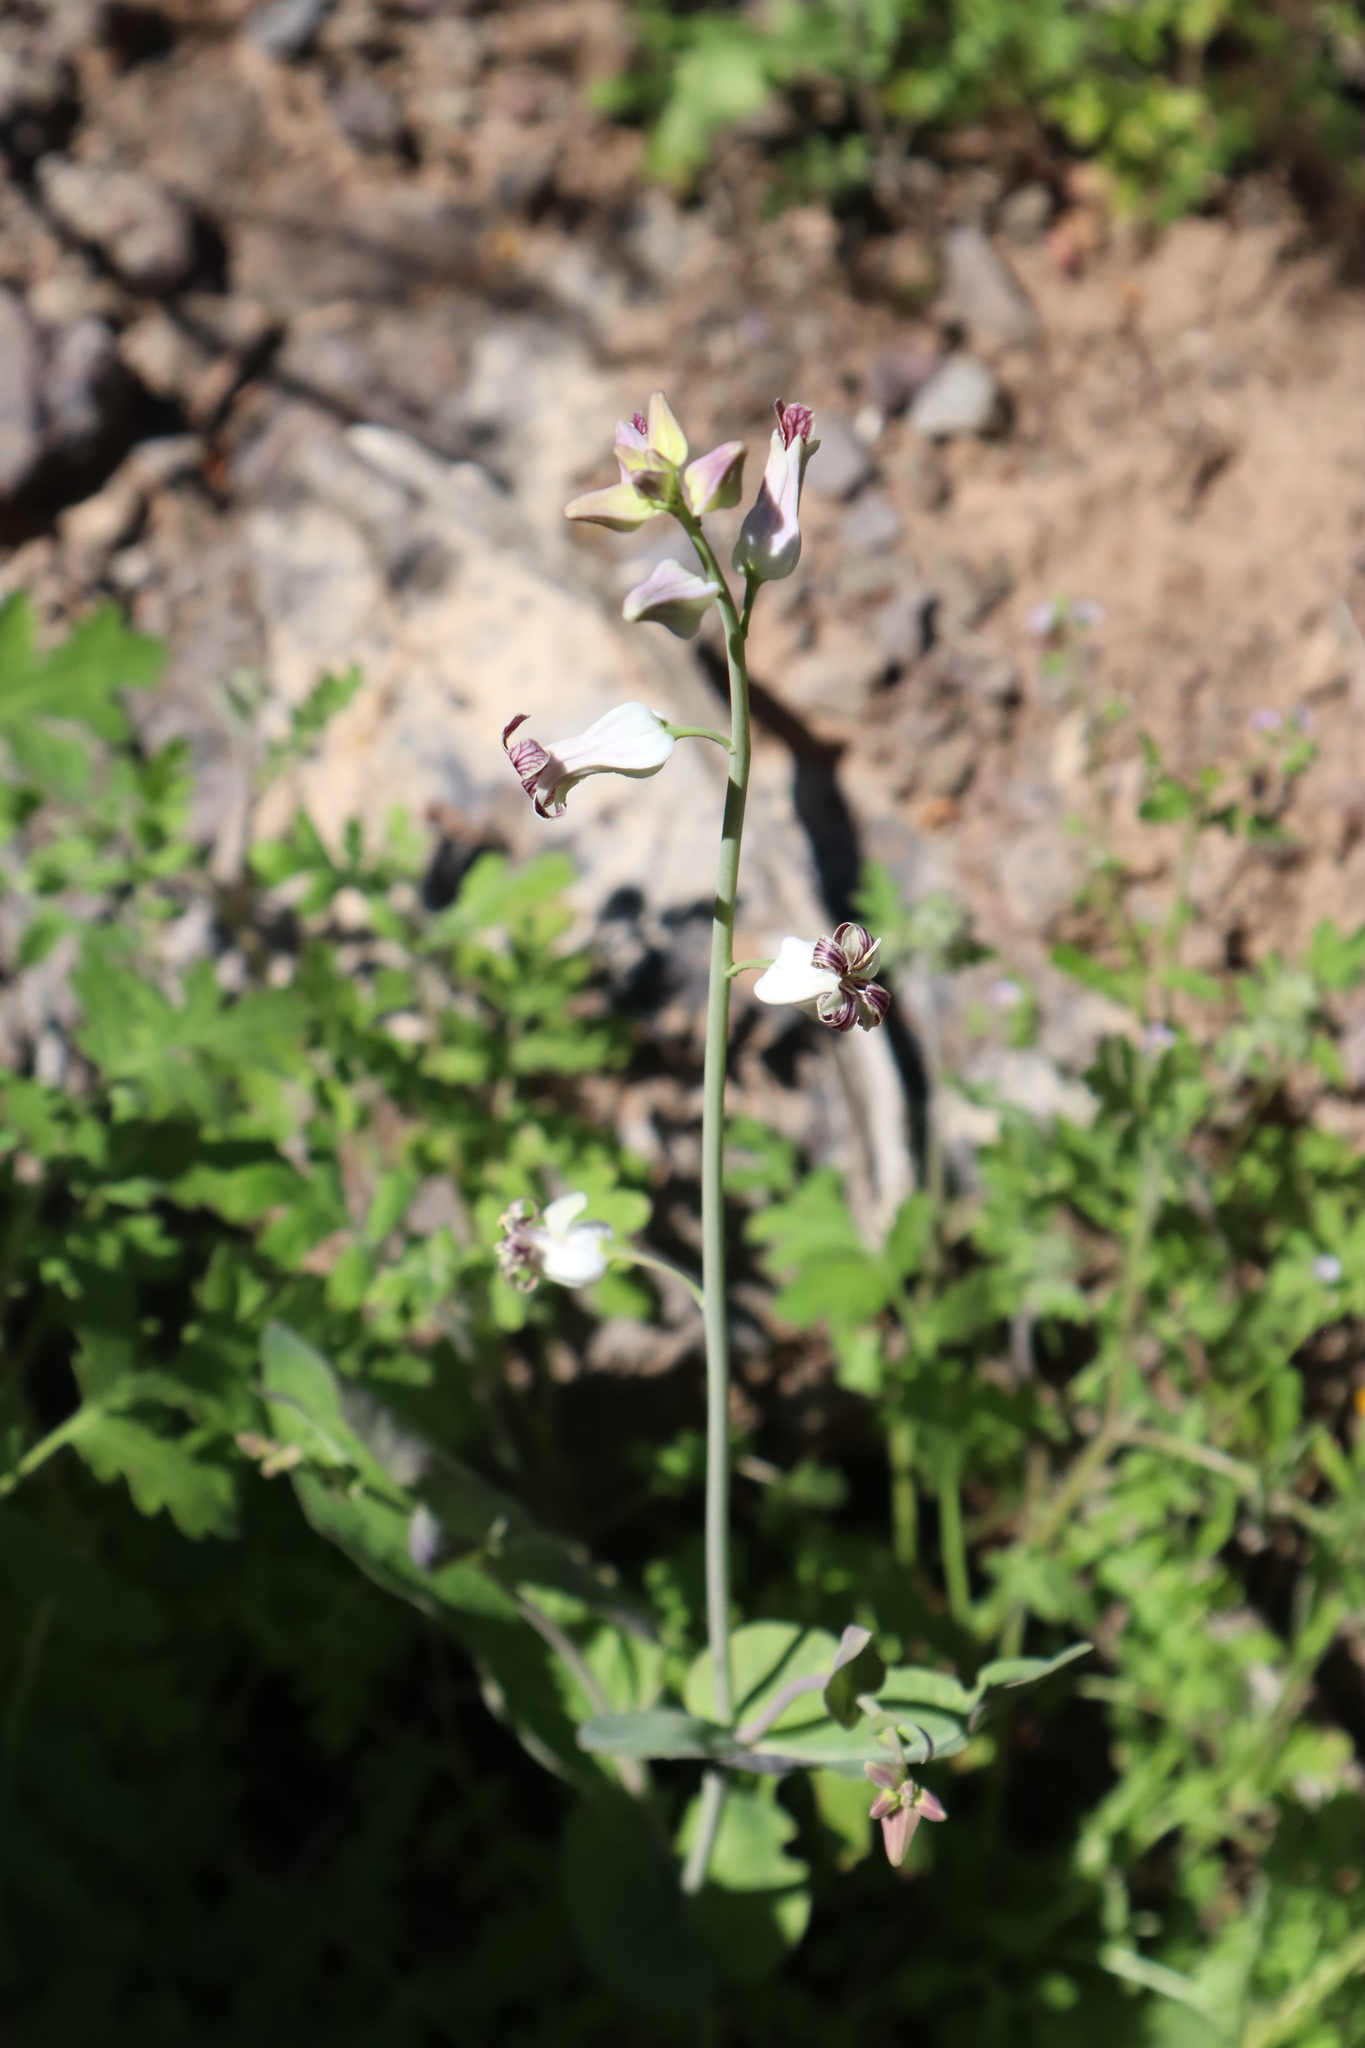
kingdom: Plantae
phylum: Tracheophyta
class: Magnoliopsida
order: Brassicales
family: Brassicaceae
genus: Streptanthus
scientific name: Streptanthus carinatus
